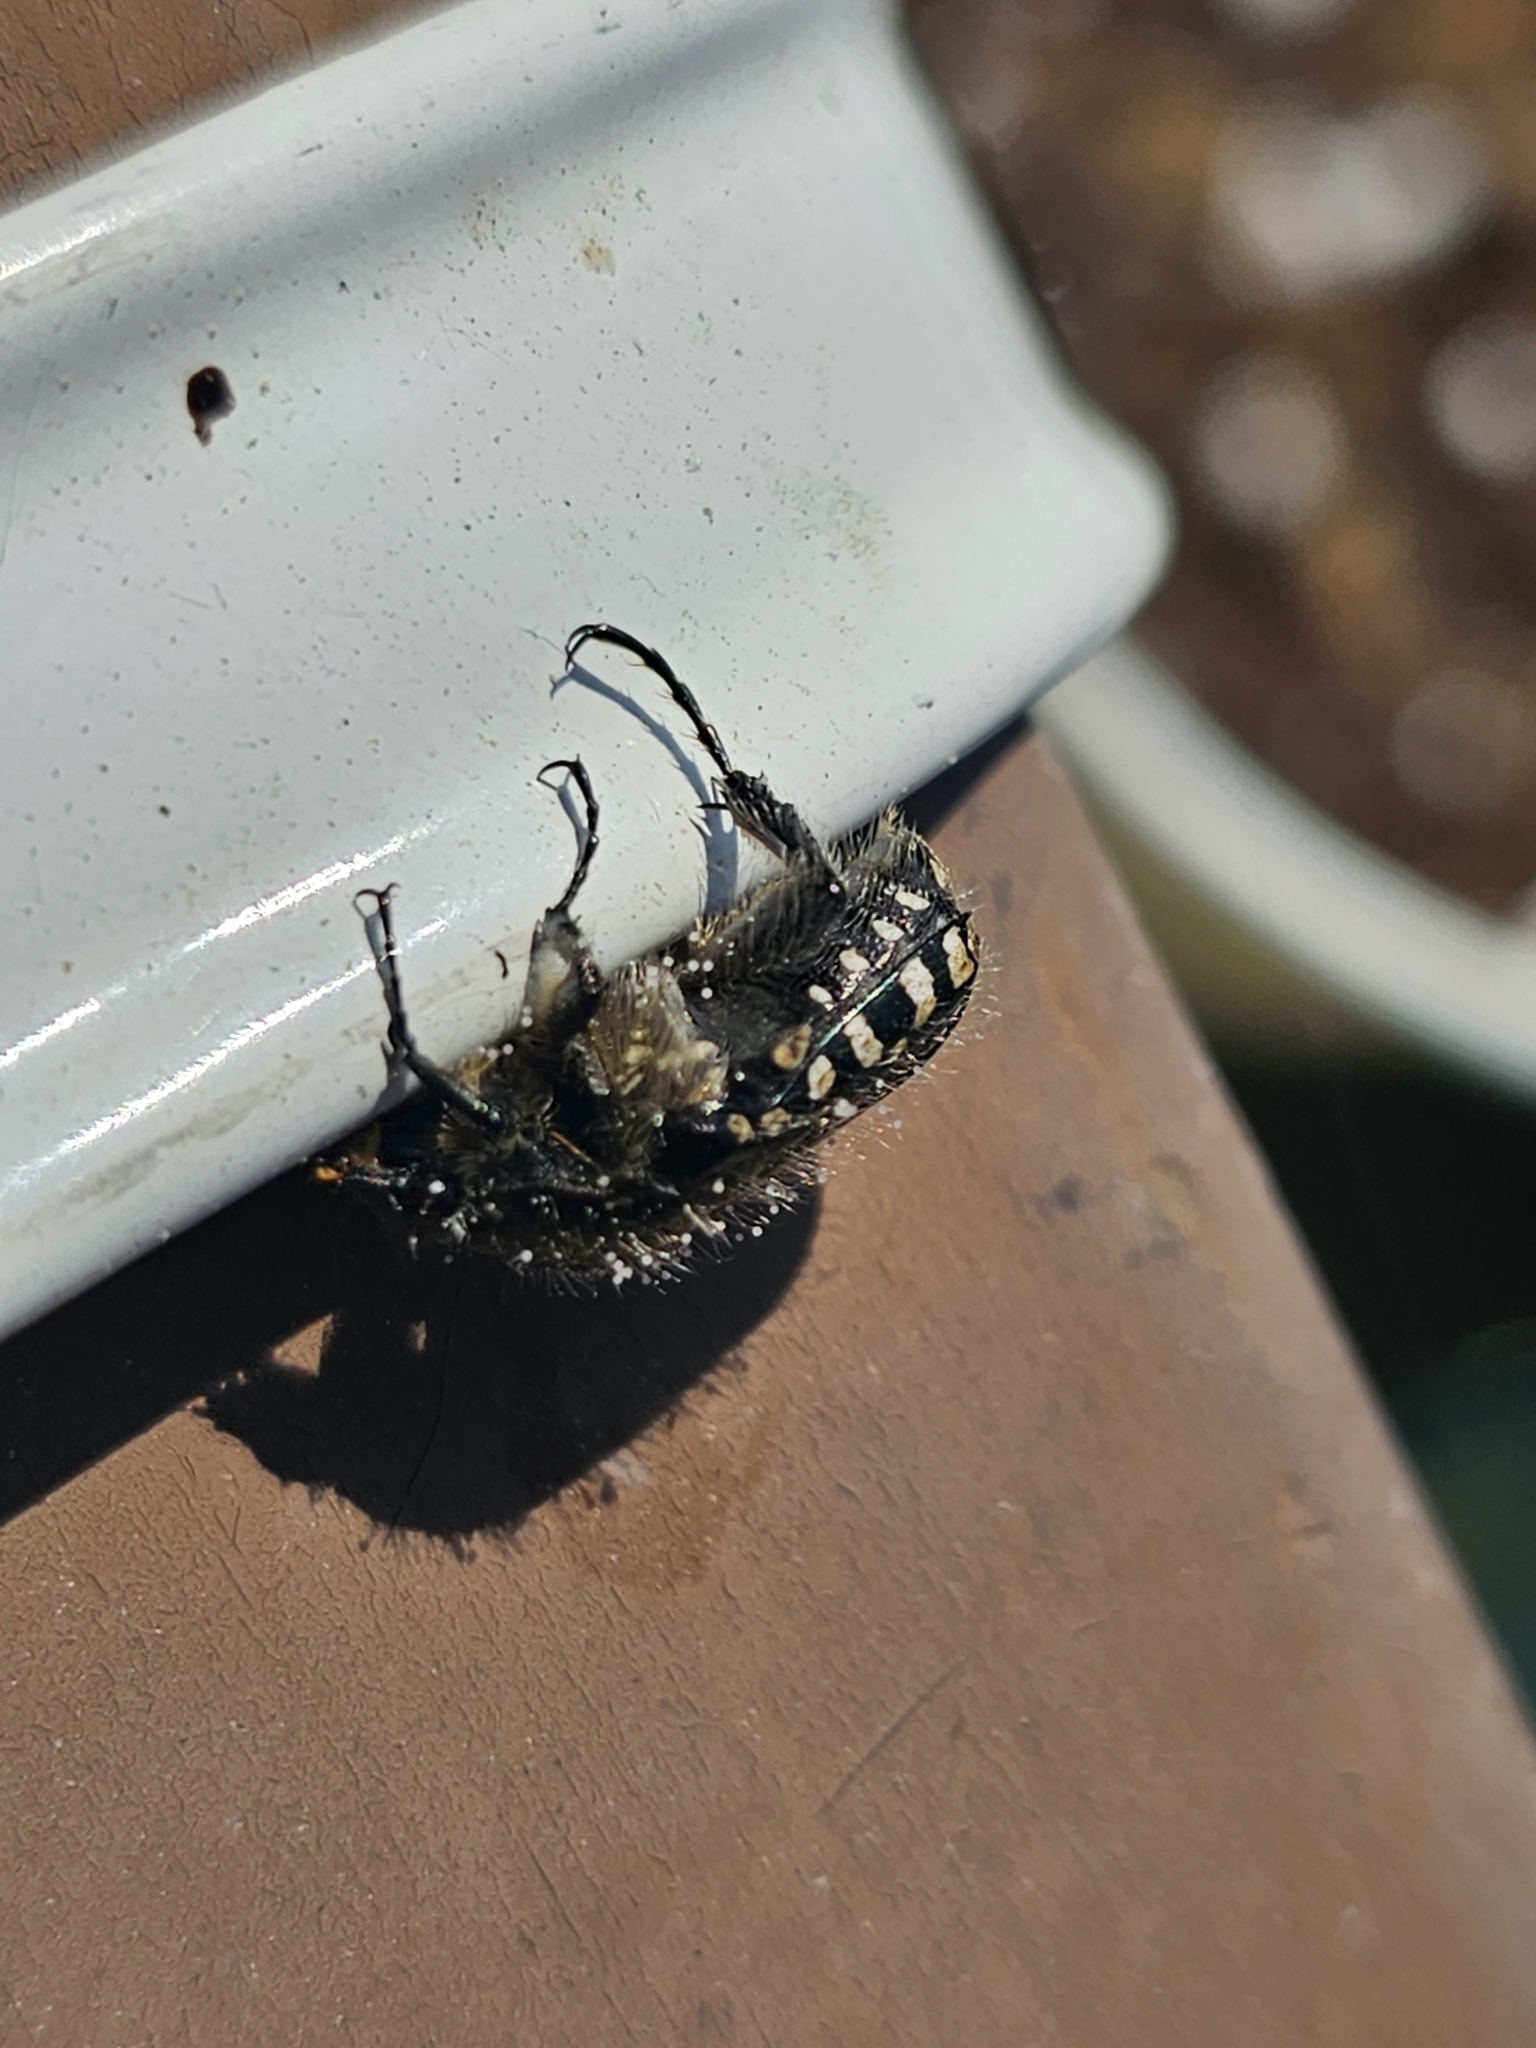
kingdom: Animalia
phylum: Arthropoda
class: Insecta
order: Coleoptera
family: Scarabaeidae
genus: Oxythyrea
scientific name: Oxythyrea funesta
